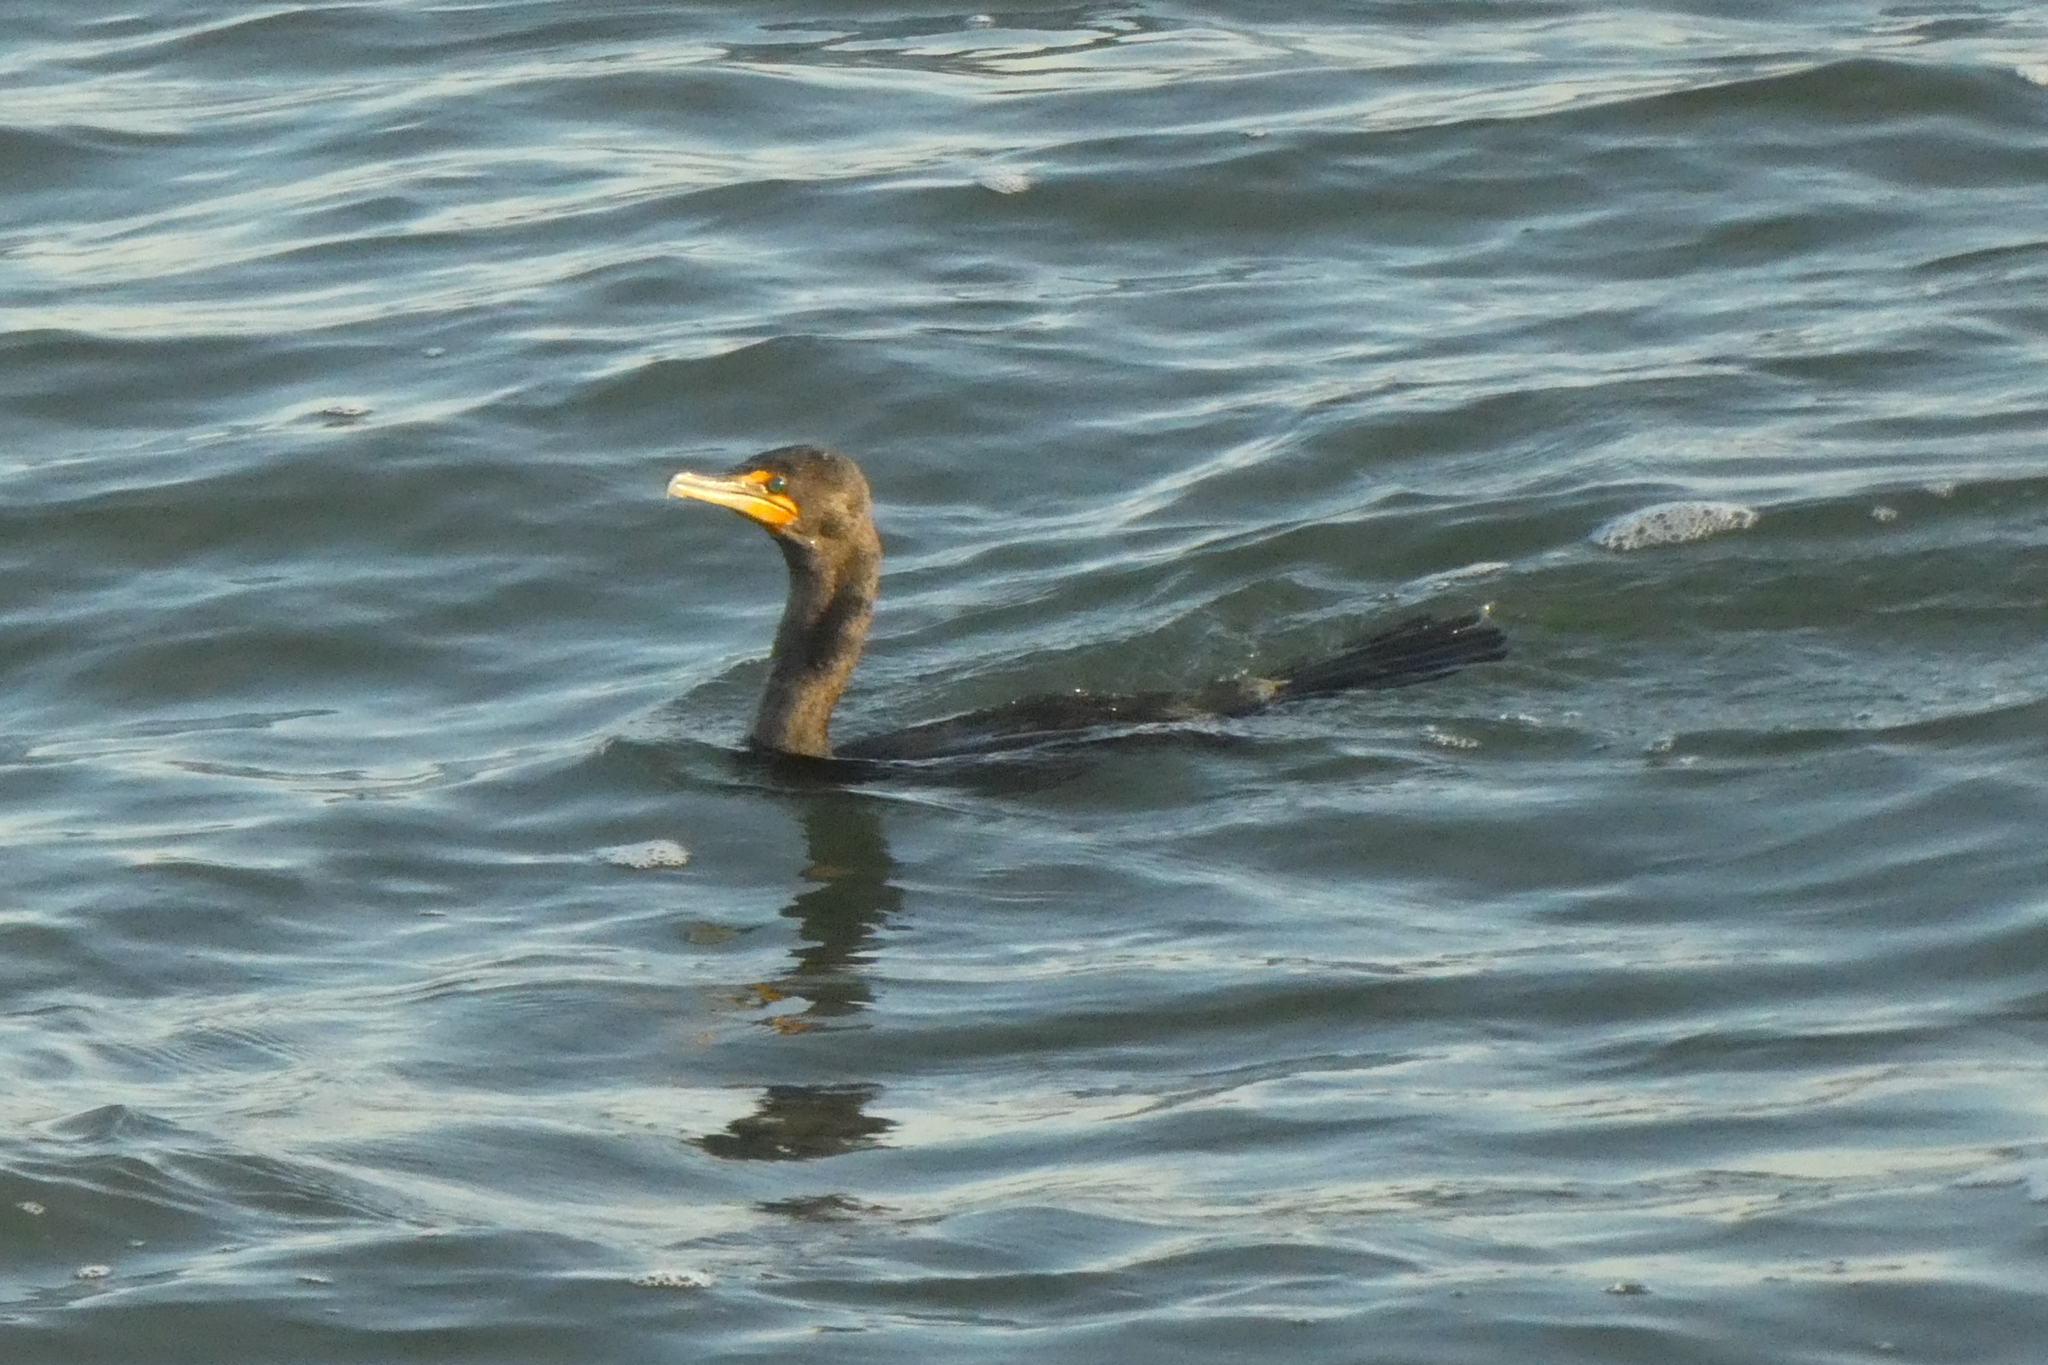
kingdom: Animalia
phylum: Chordata
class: Aves
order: Suliformes
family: Phalacrocoracidae
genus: Phalacrocorax
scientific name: Phalacrocorax auritus
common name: Double-crested cormorant
